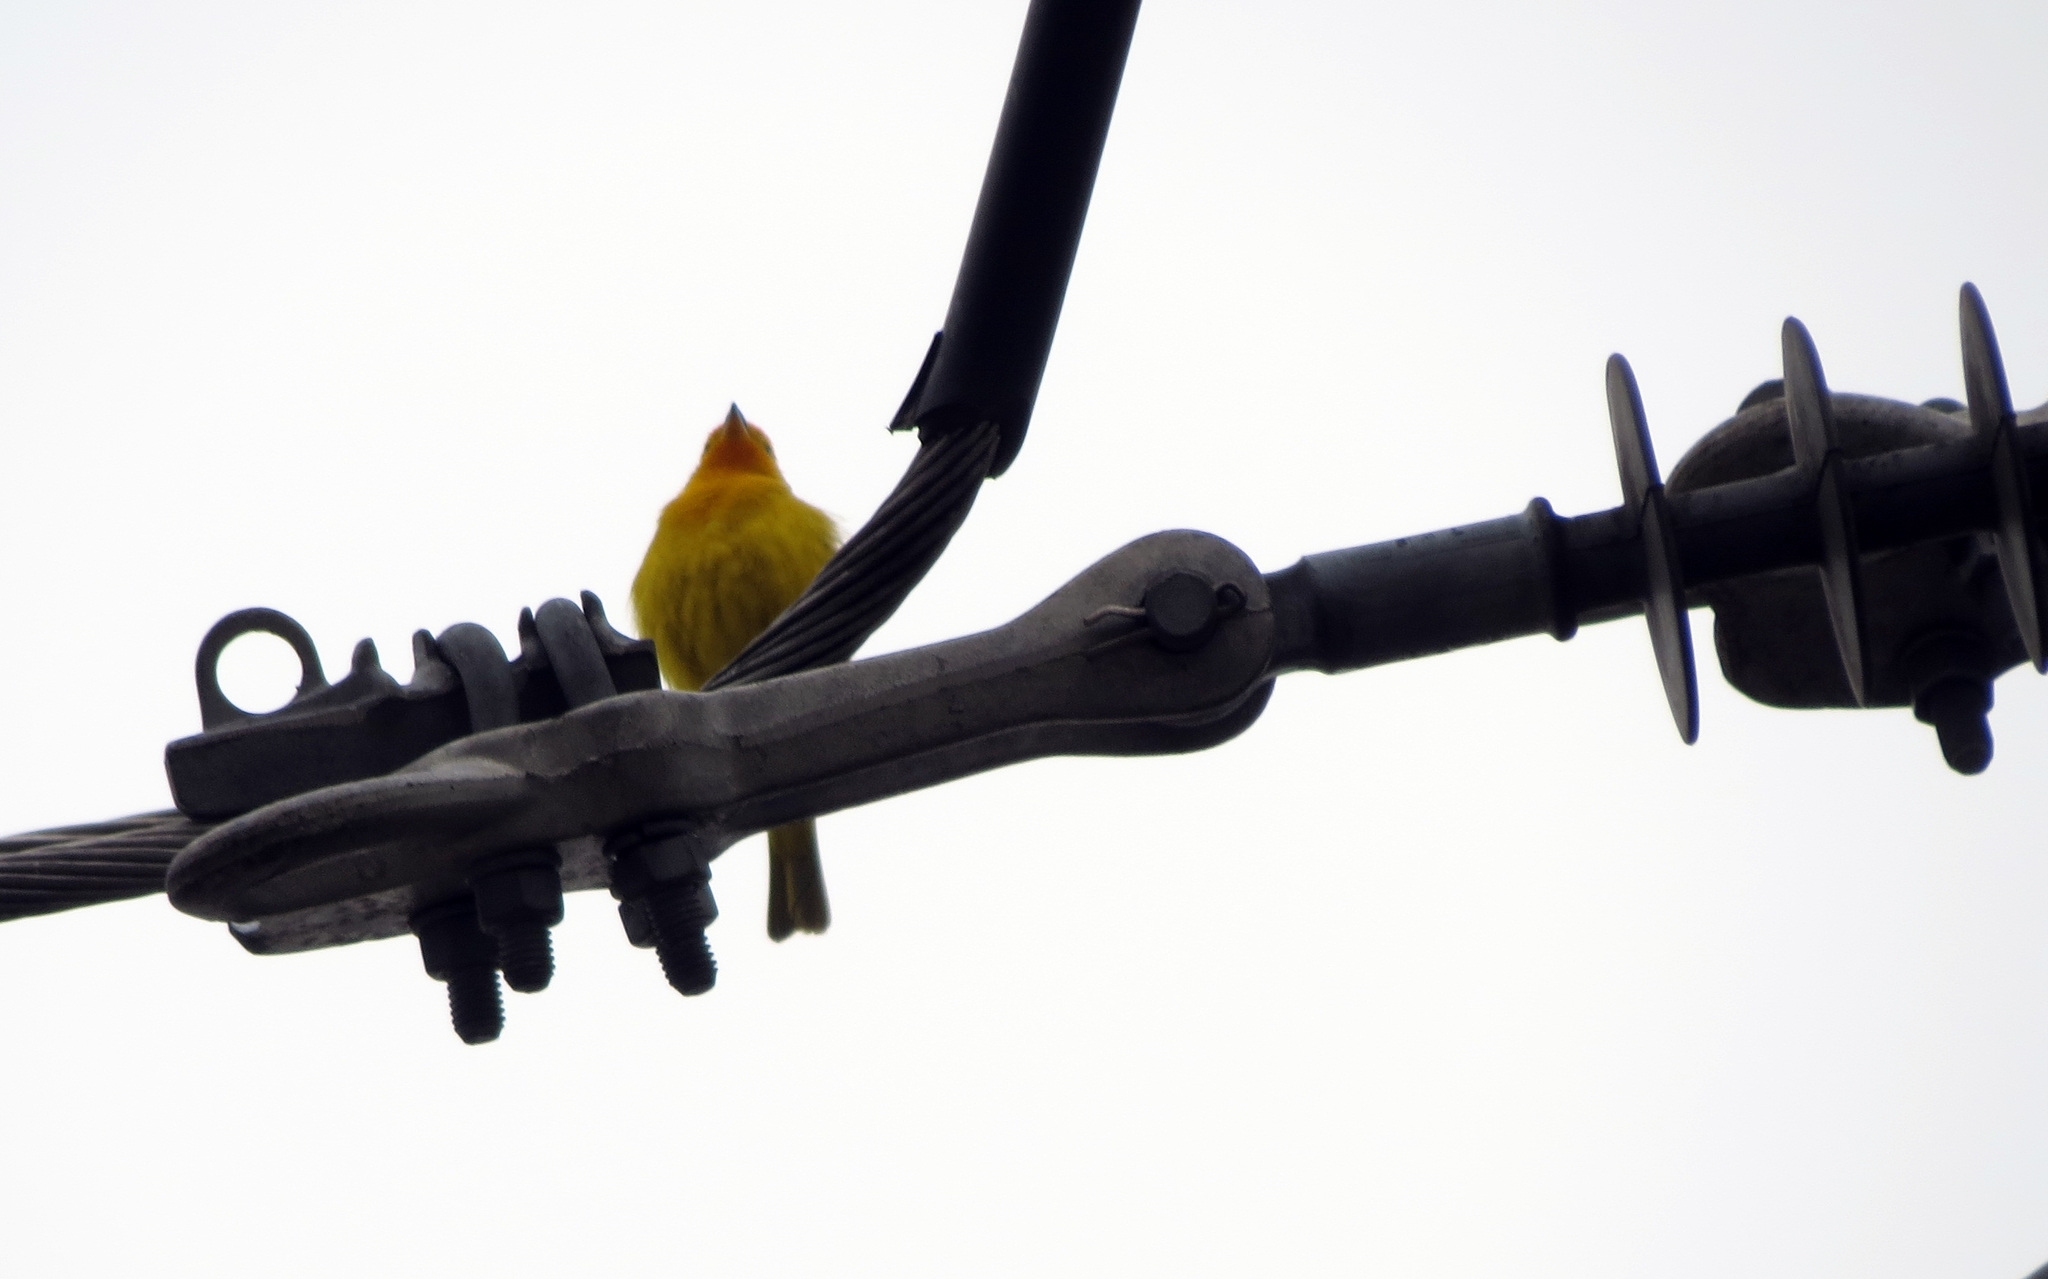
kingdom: Animalia
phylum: Chordata
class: Aves
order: Passeriformes
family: Thraupidae
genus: Sicalis
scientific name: Sicalis flaveola
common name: Saffron finch
